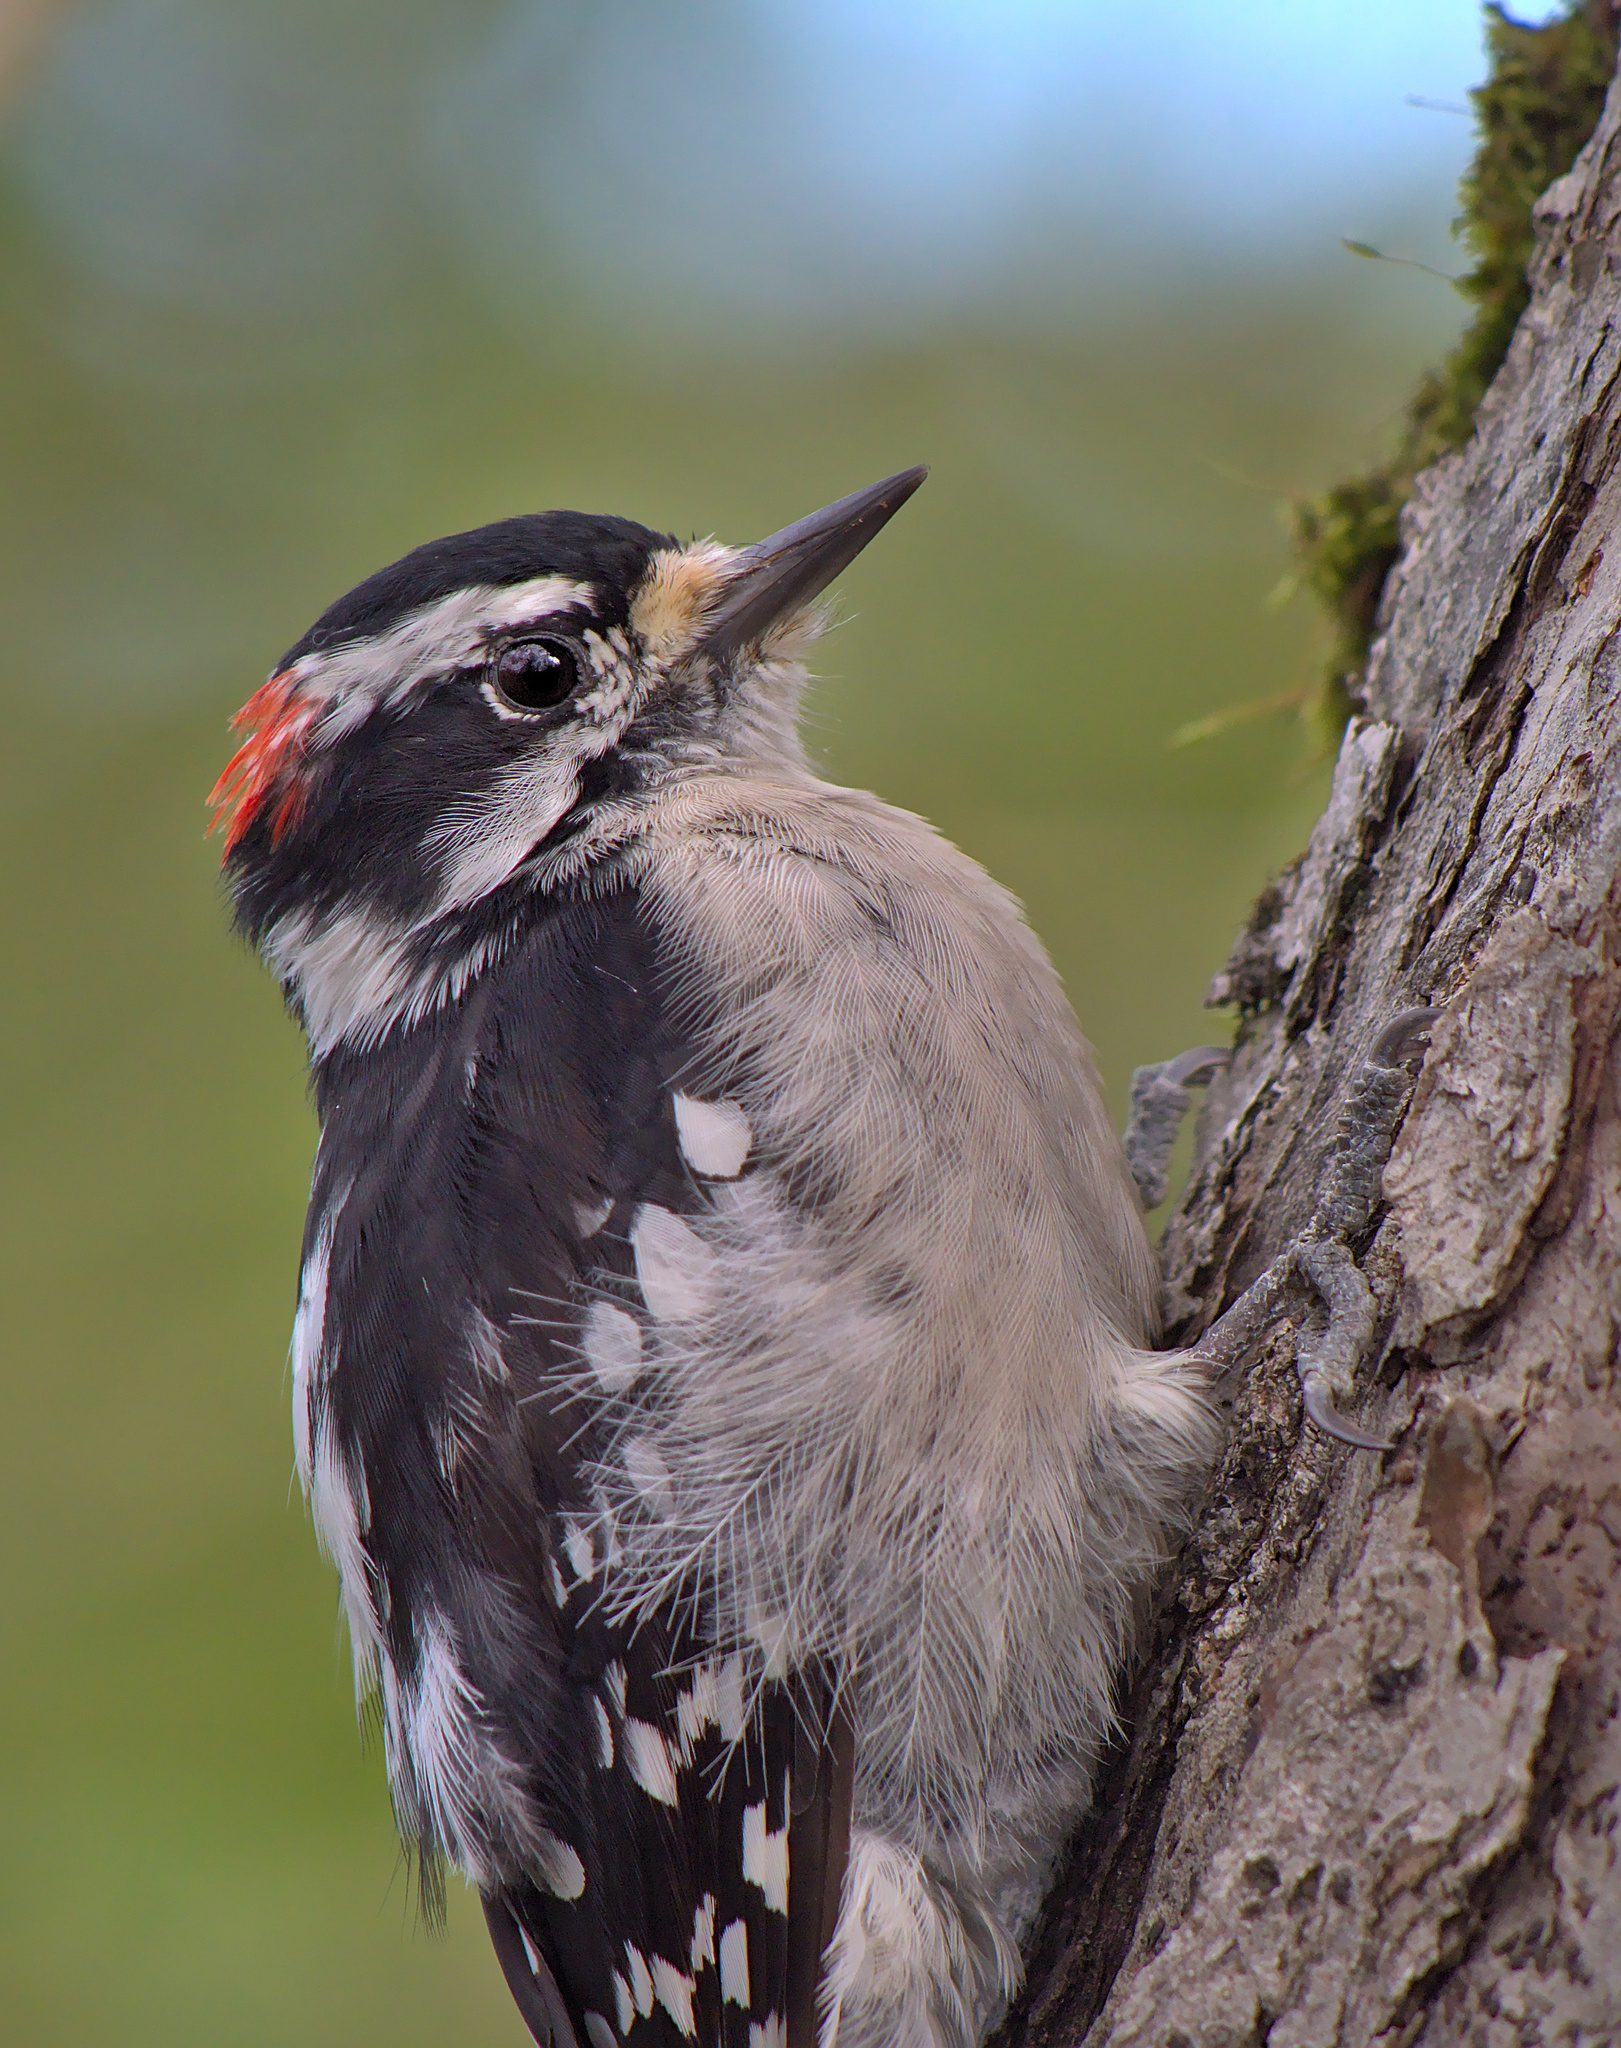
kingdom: Animalia
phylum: Chordata
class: Aves
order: Piciformes
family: Picidae
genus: Dryobates
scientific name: Dryobates pubescens
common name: Downy woodpecker
